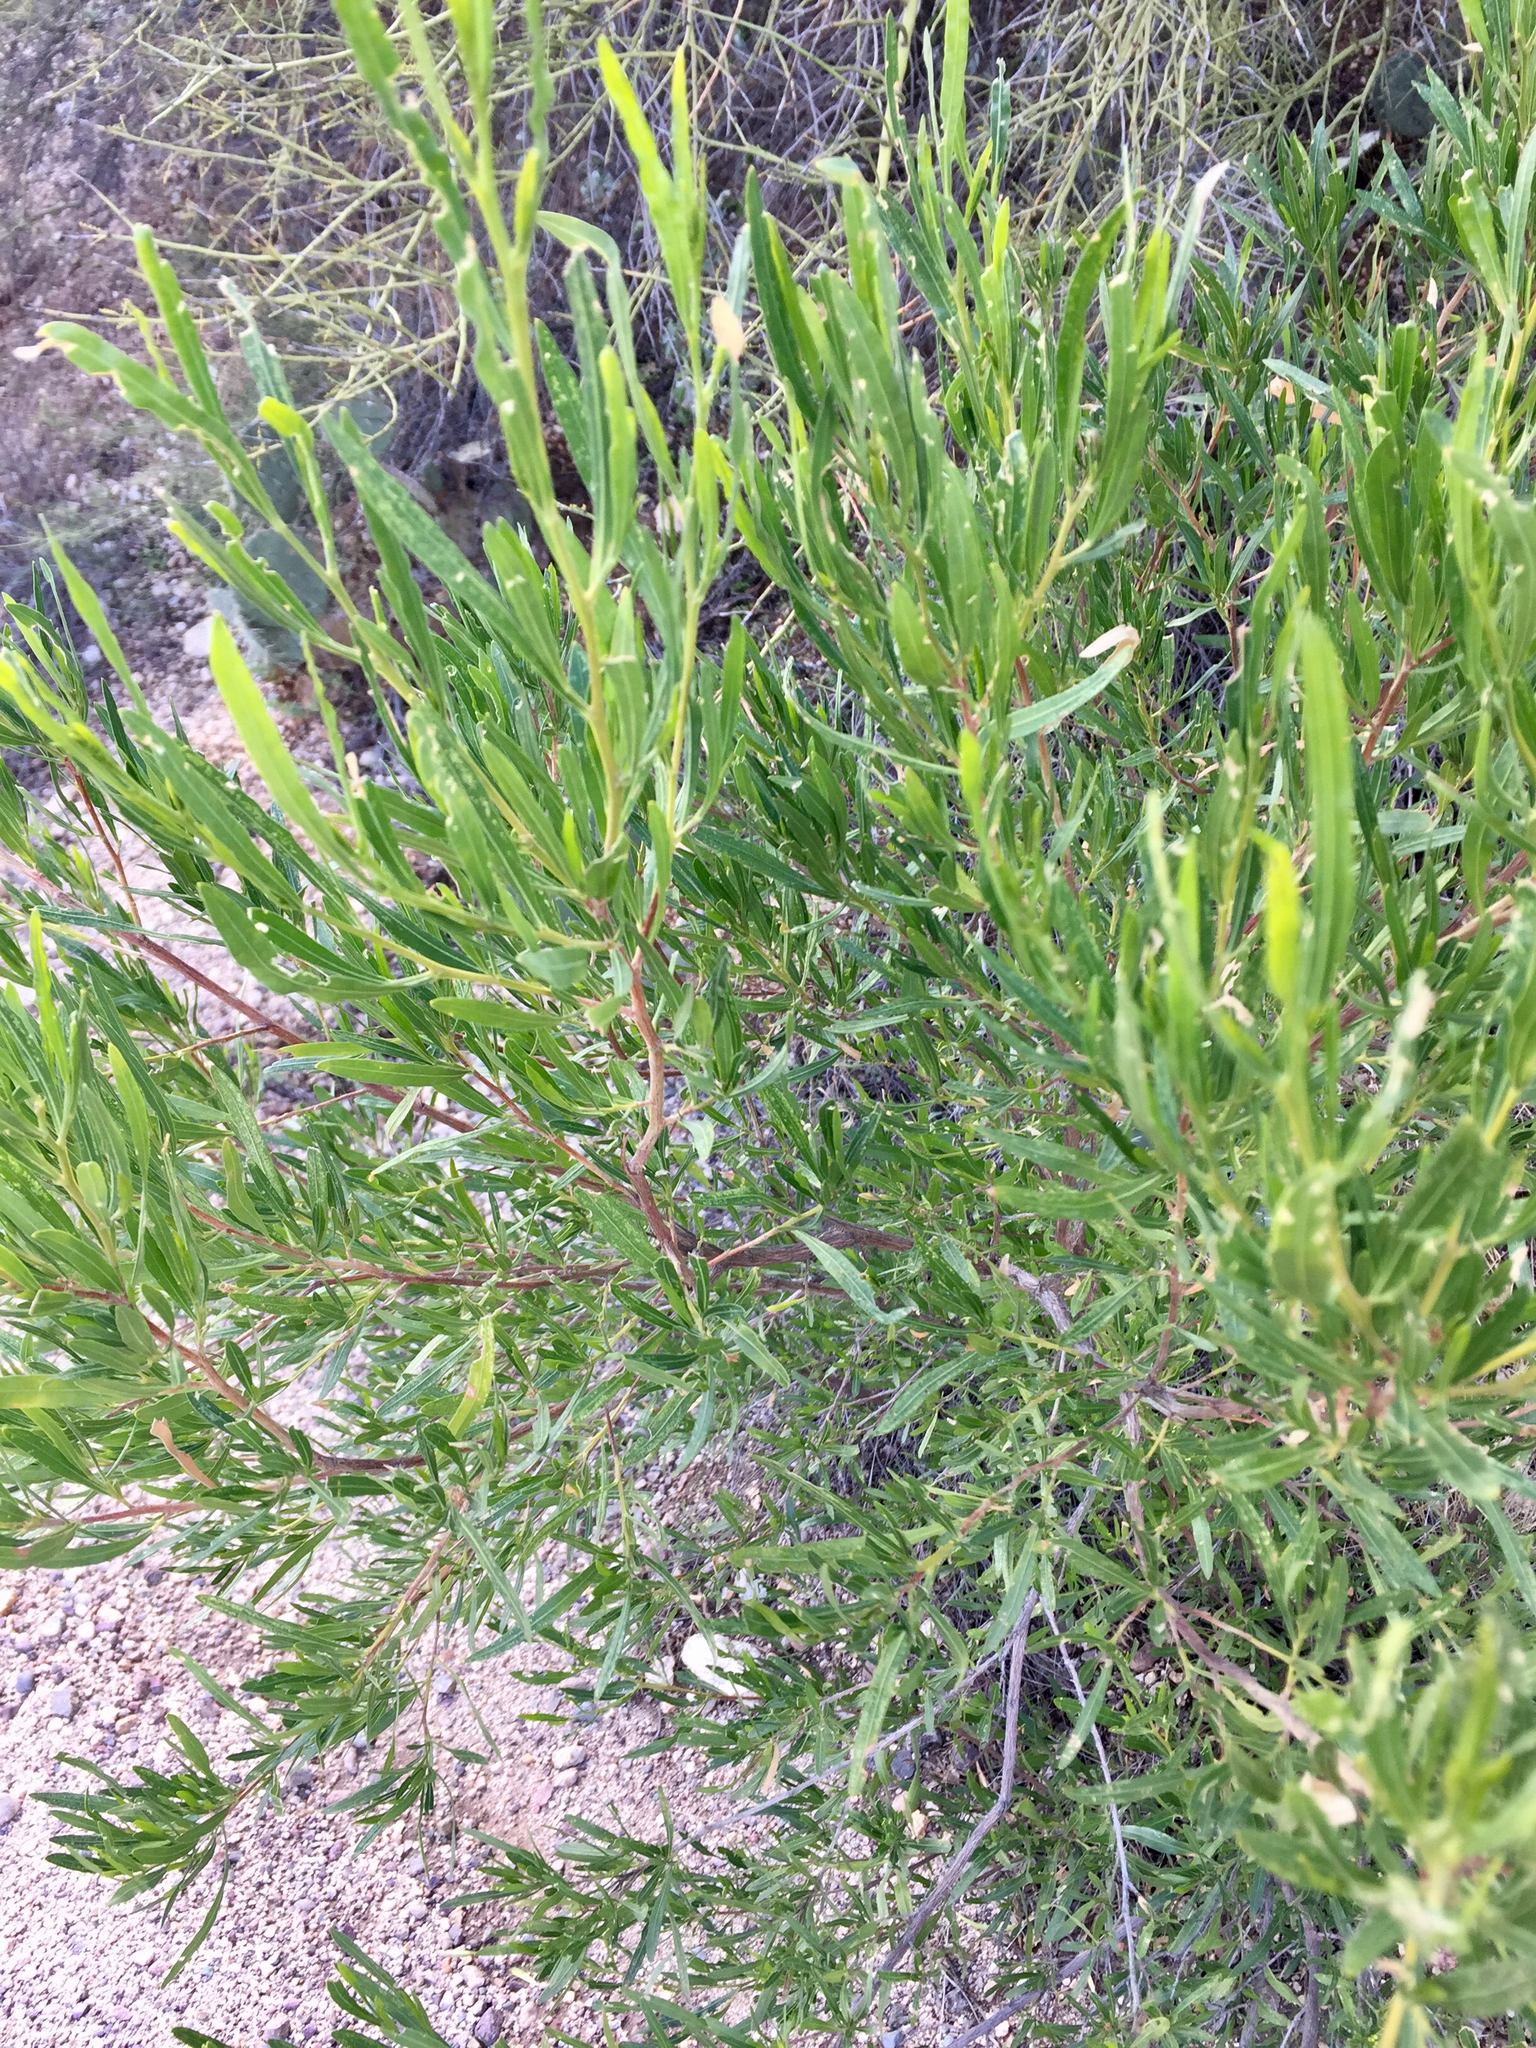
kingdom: Plantae
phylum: Tracheophyta
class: Magnoliopsida
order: Sapindales
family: Sapindaceae
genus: Dodonaea
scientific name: Dodonaea viscosa
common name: Hopbush
